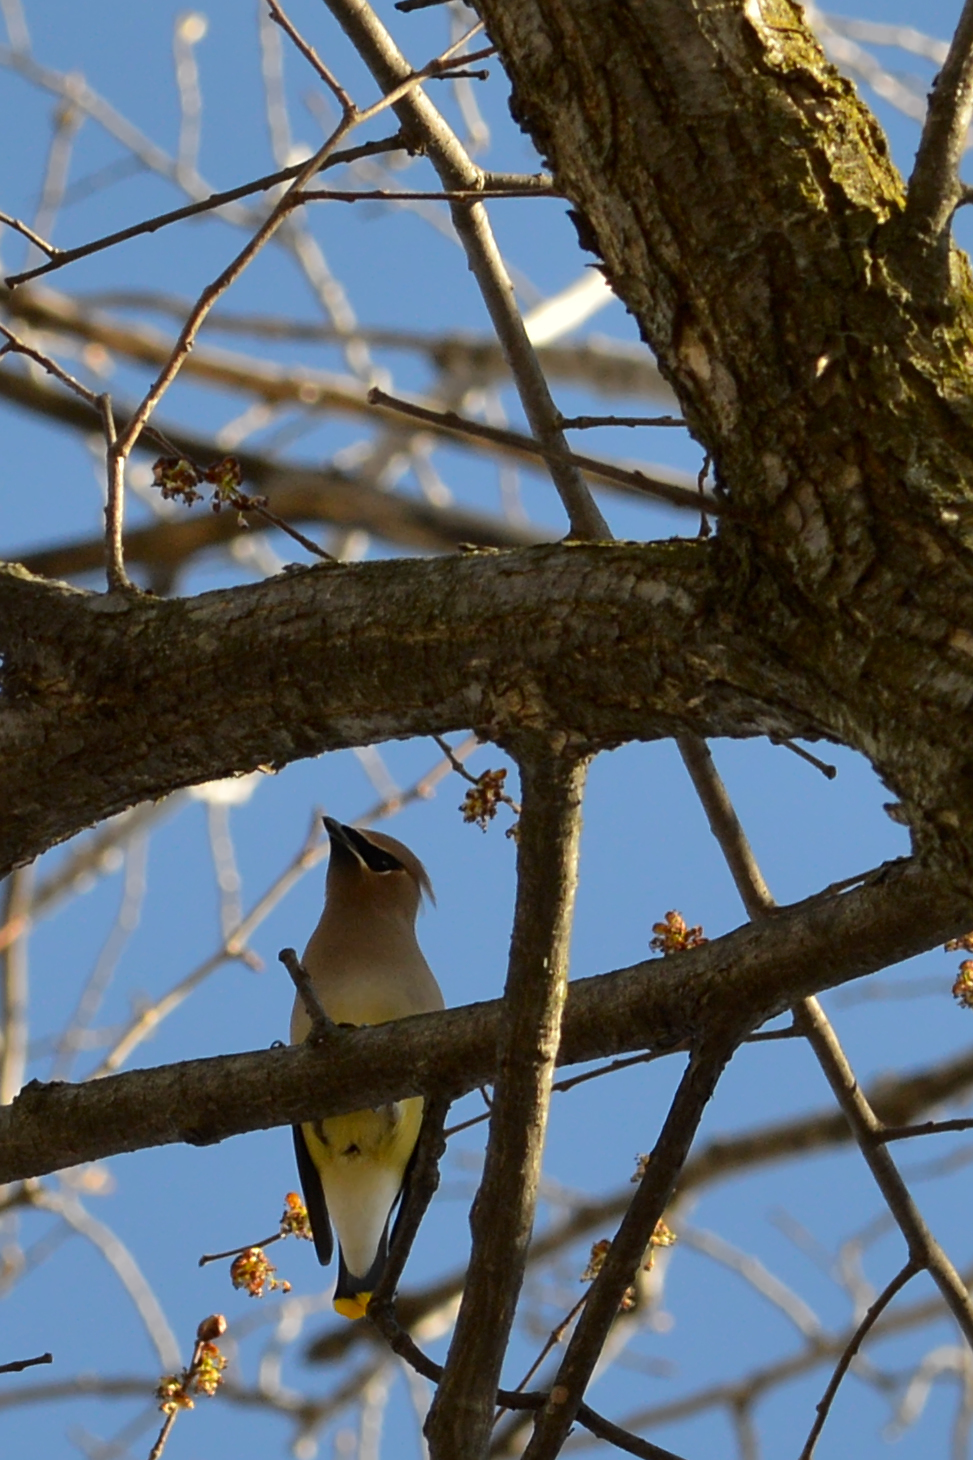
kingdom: Animalia
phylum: Chordata
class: Aves
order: Passeriformes
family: Bombycillidae
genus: Bombycilla
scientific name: Bombycilla cedrorum
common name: Cedar waxwing
